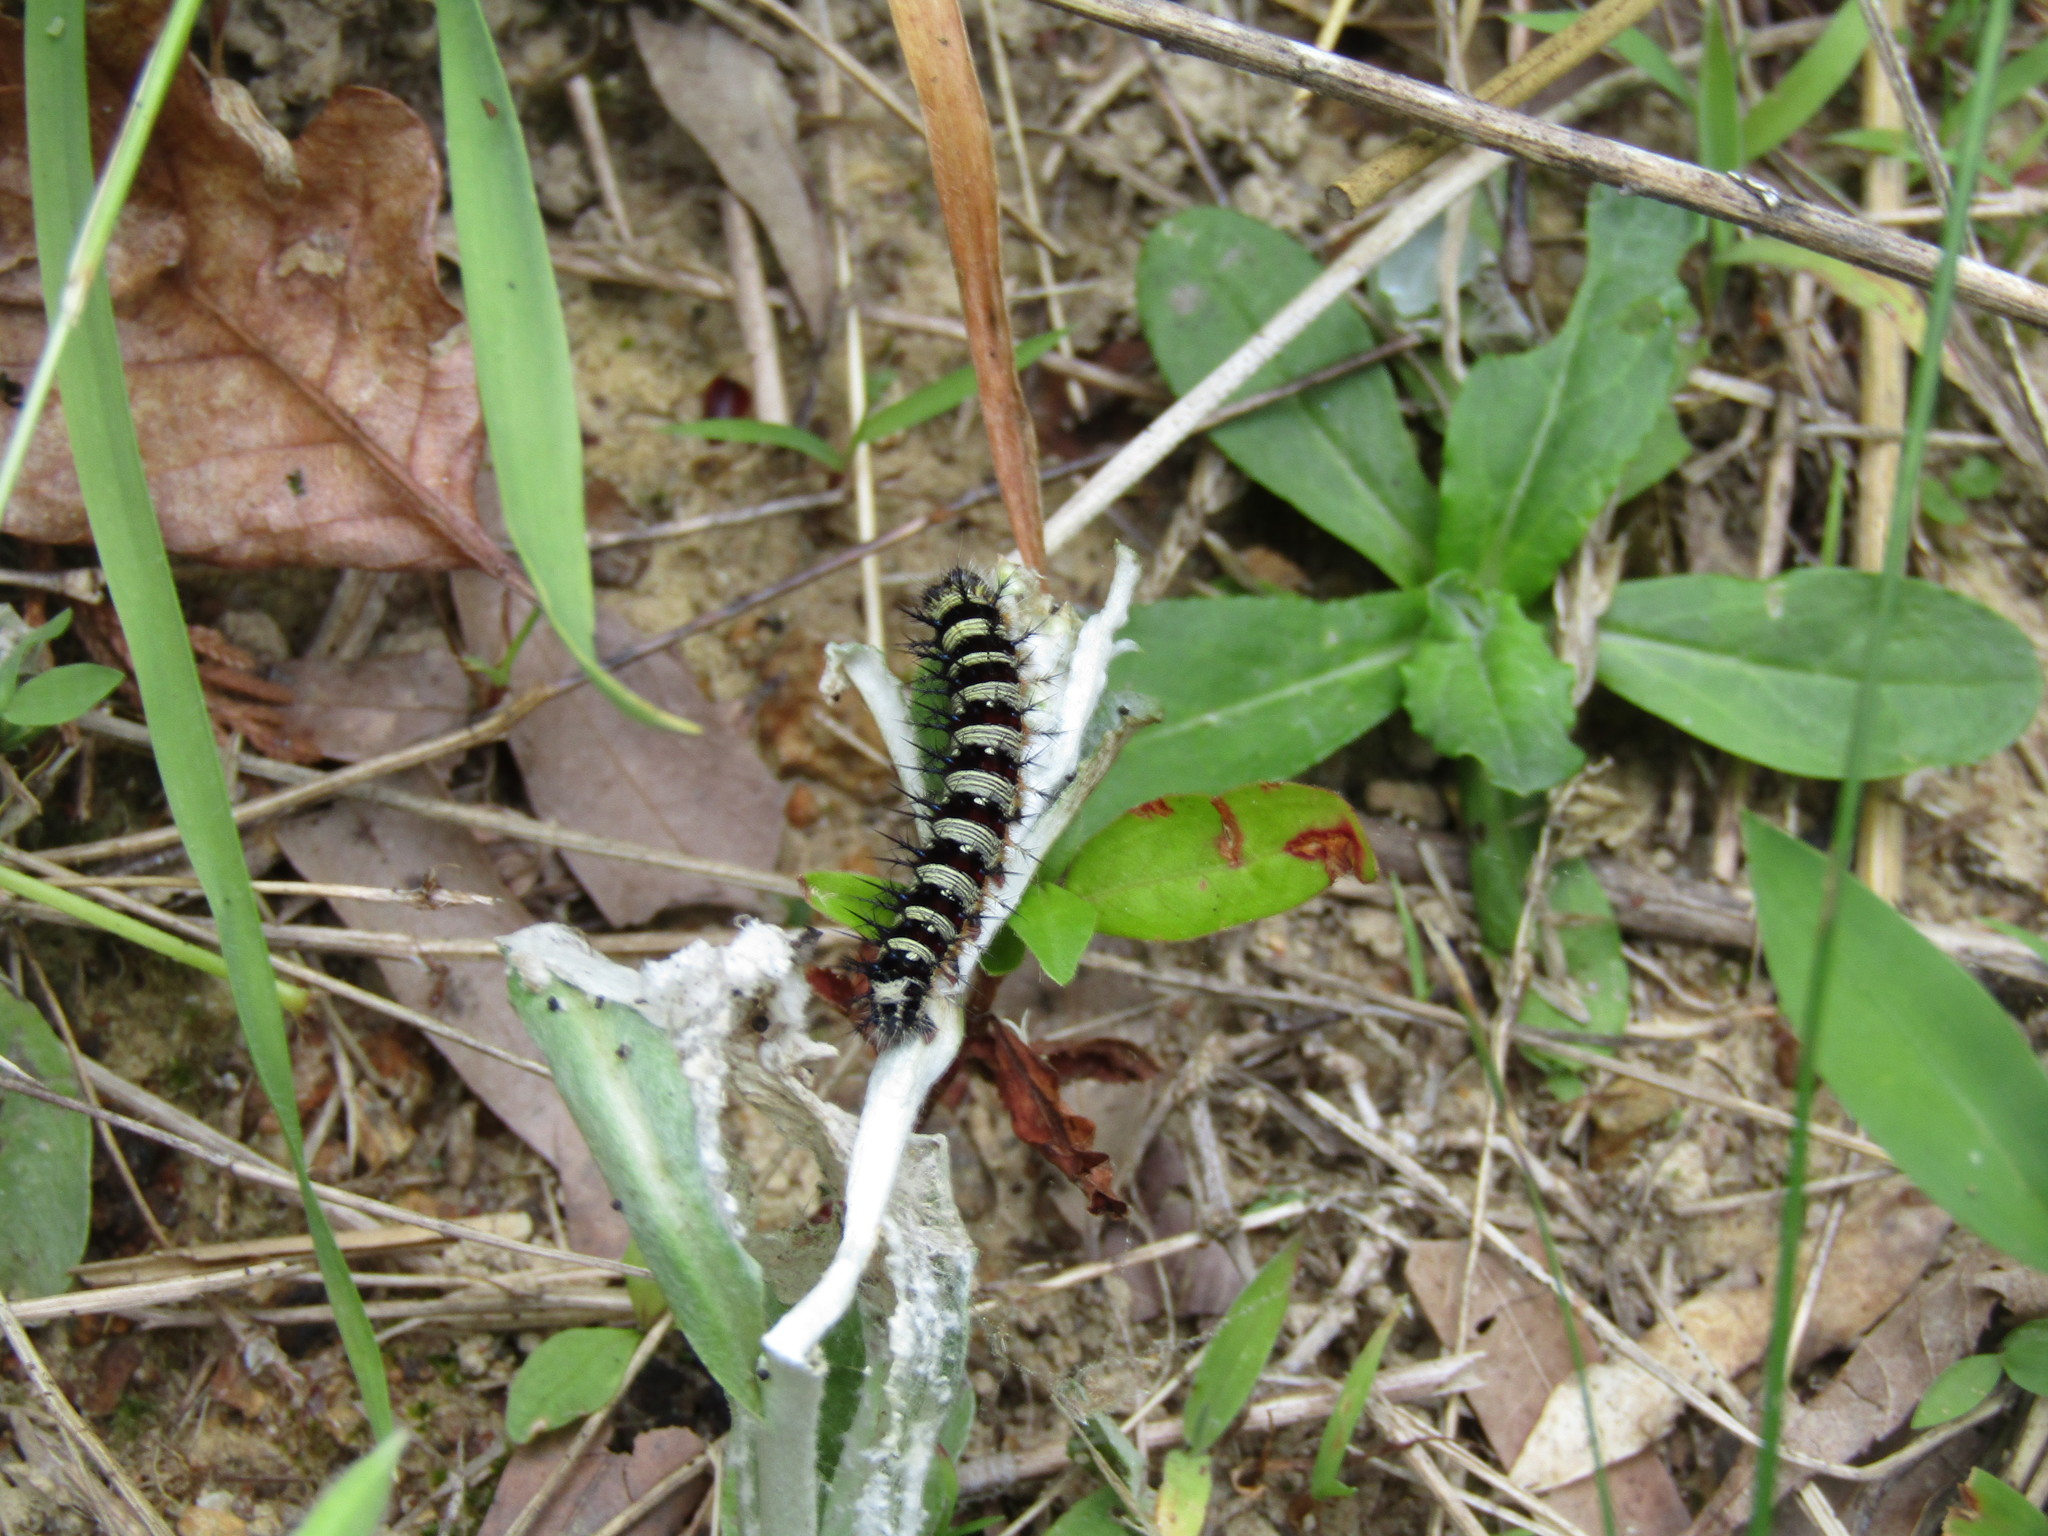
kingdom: Animalia
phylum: Arthropoda
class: Insecta
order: Lepidoptera
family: Nymphalidae
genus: Vanessa
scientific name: Vanessa virginiensis
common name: American lady
